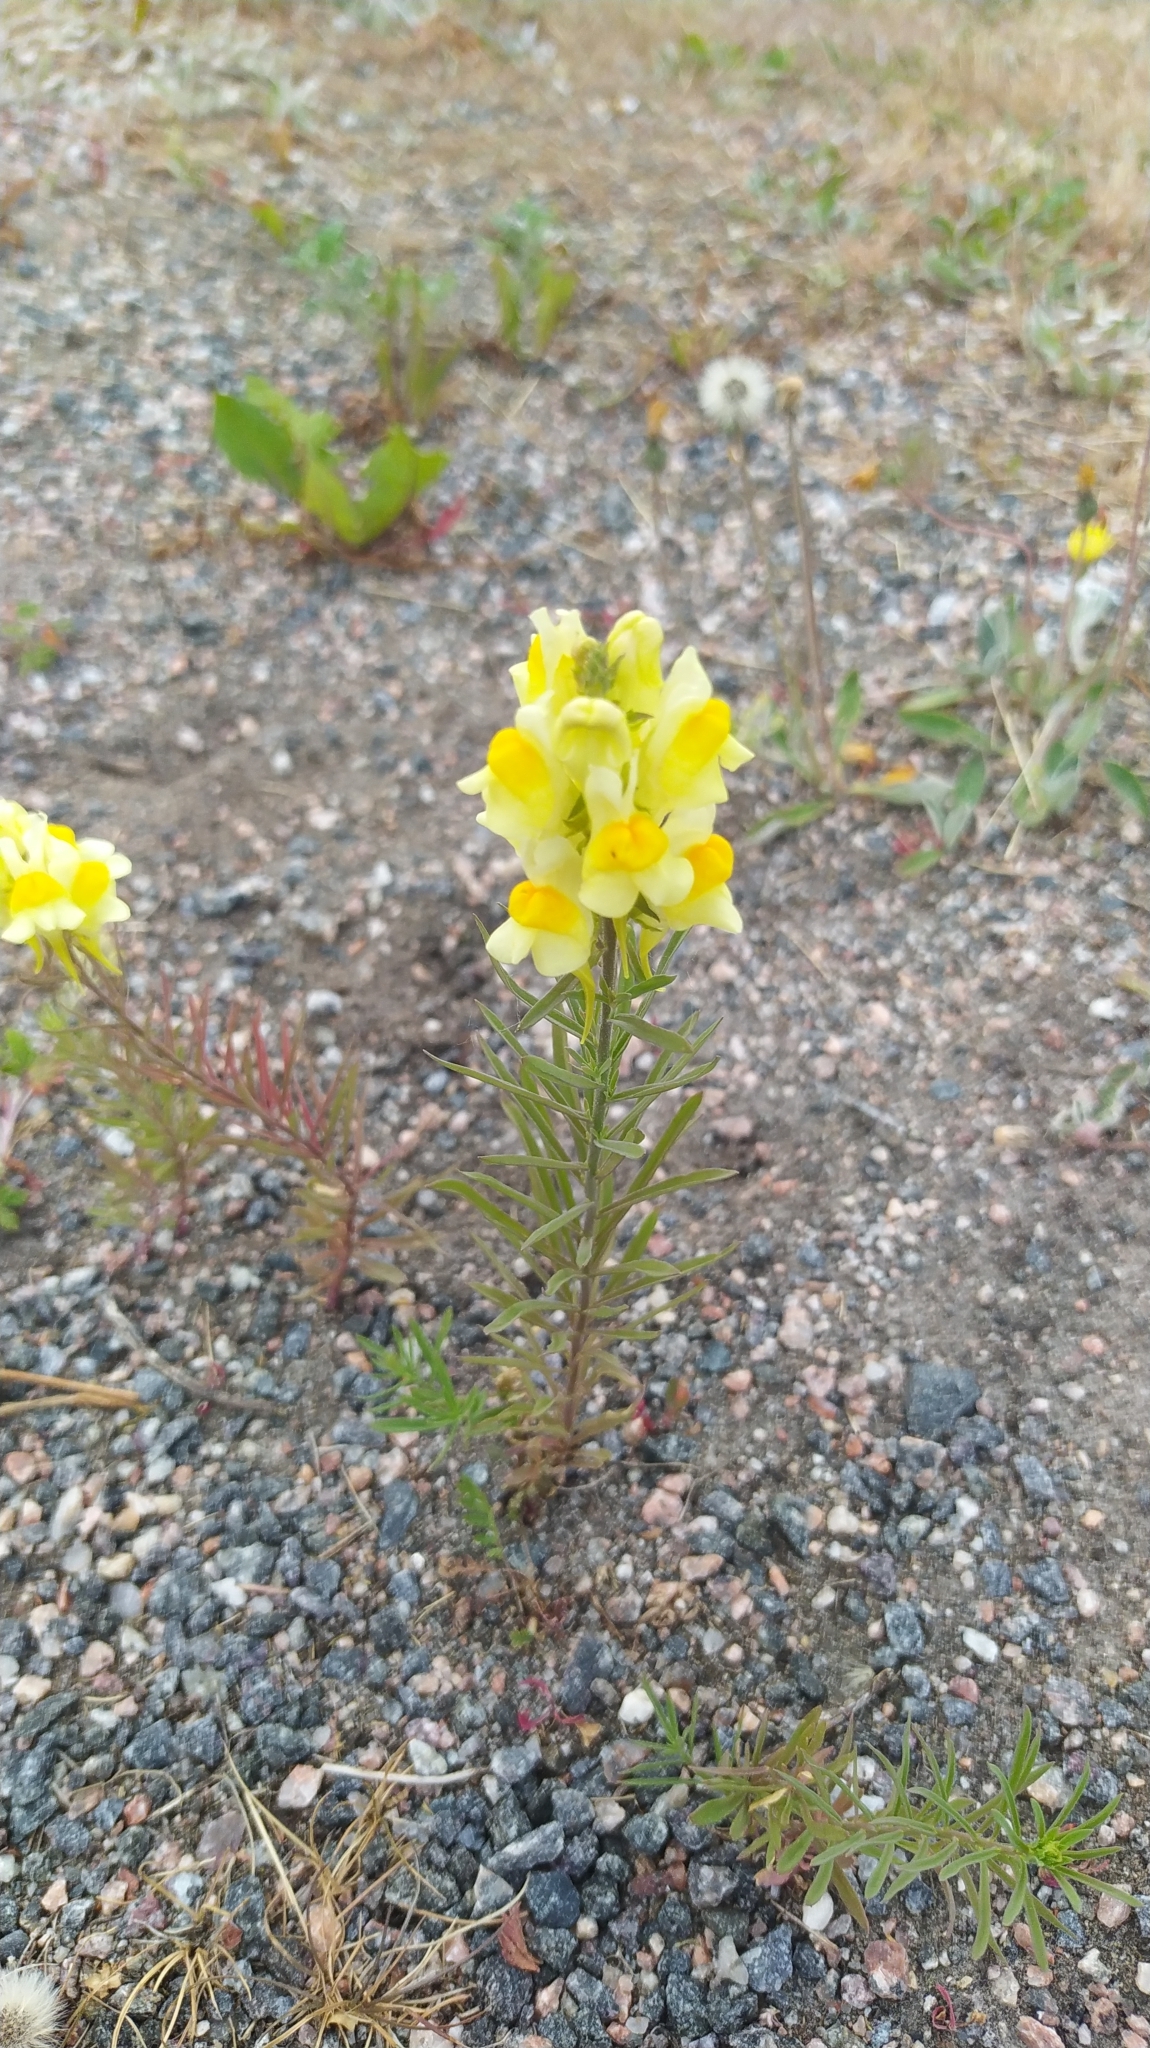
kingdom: Plantae
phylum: Tracheophyta
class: Magnoliopsida
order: Lamiales
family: Plantaginaceae
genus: Linaria
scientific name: Linaria vulgaris
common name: Butter and eggs
